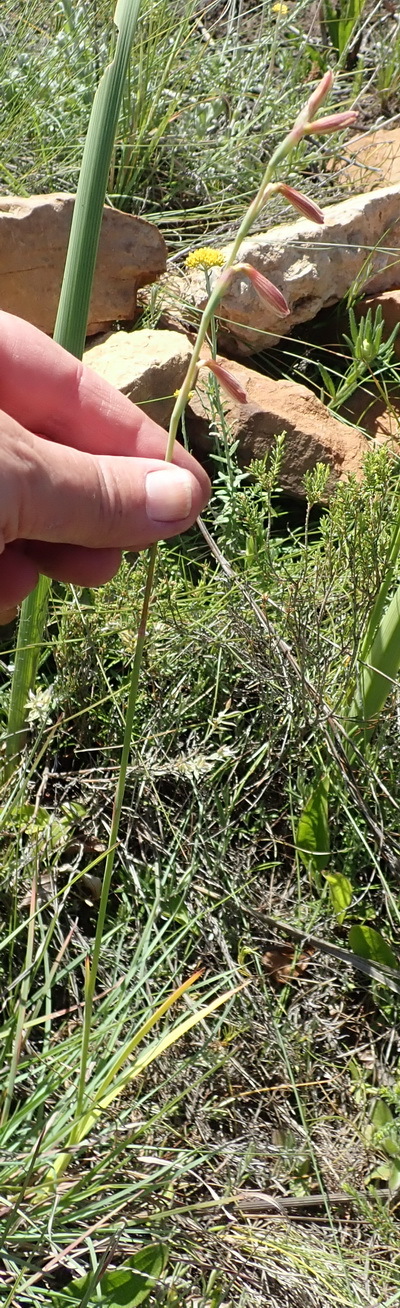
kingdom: Plantae
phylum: Tracheophyta
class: Liliopsida
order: Asparagales
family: Iridaceae
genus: Hesperantha
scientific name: Hesperantha falcata
